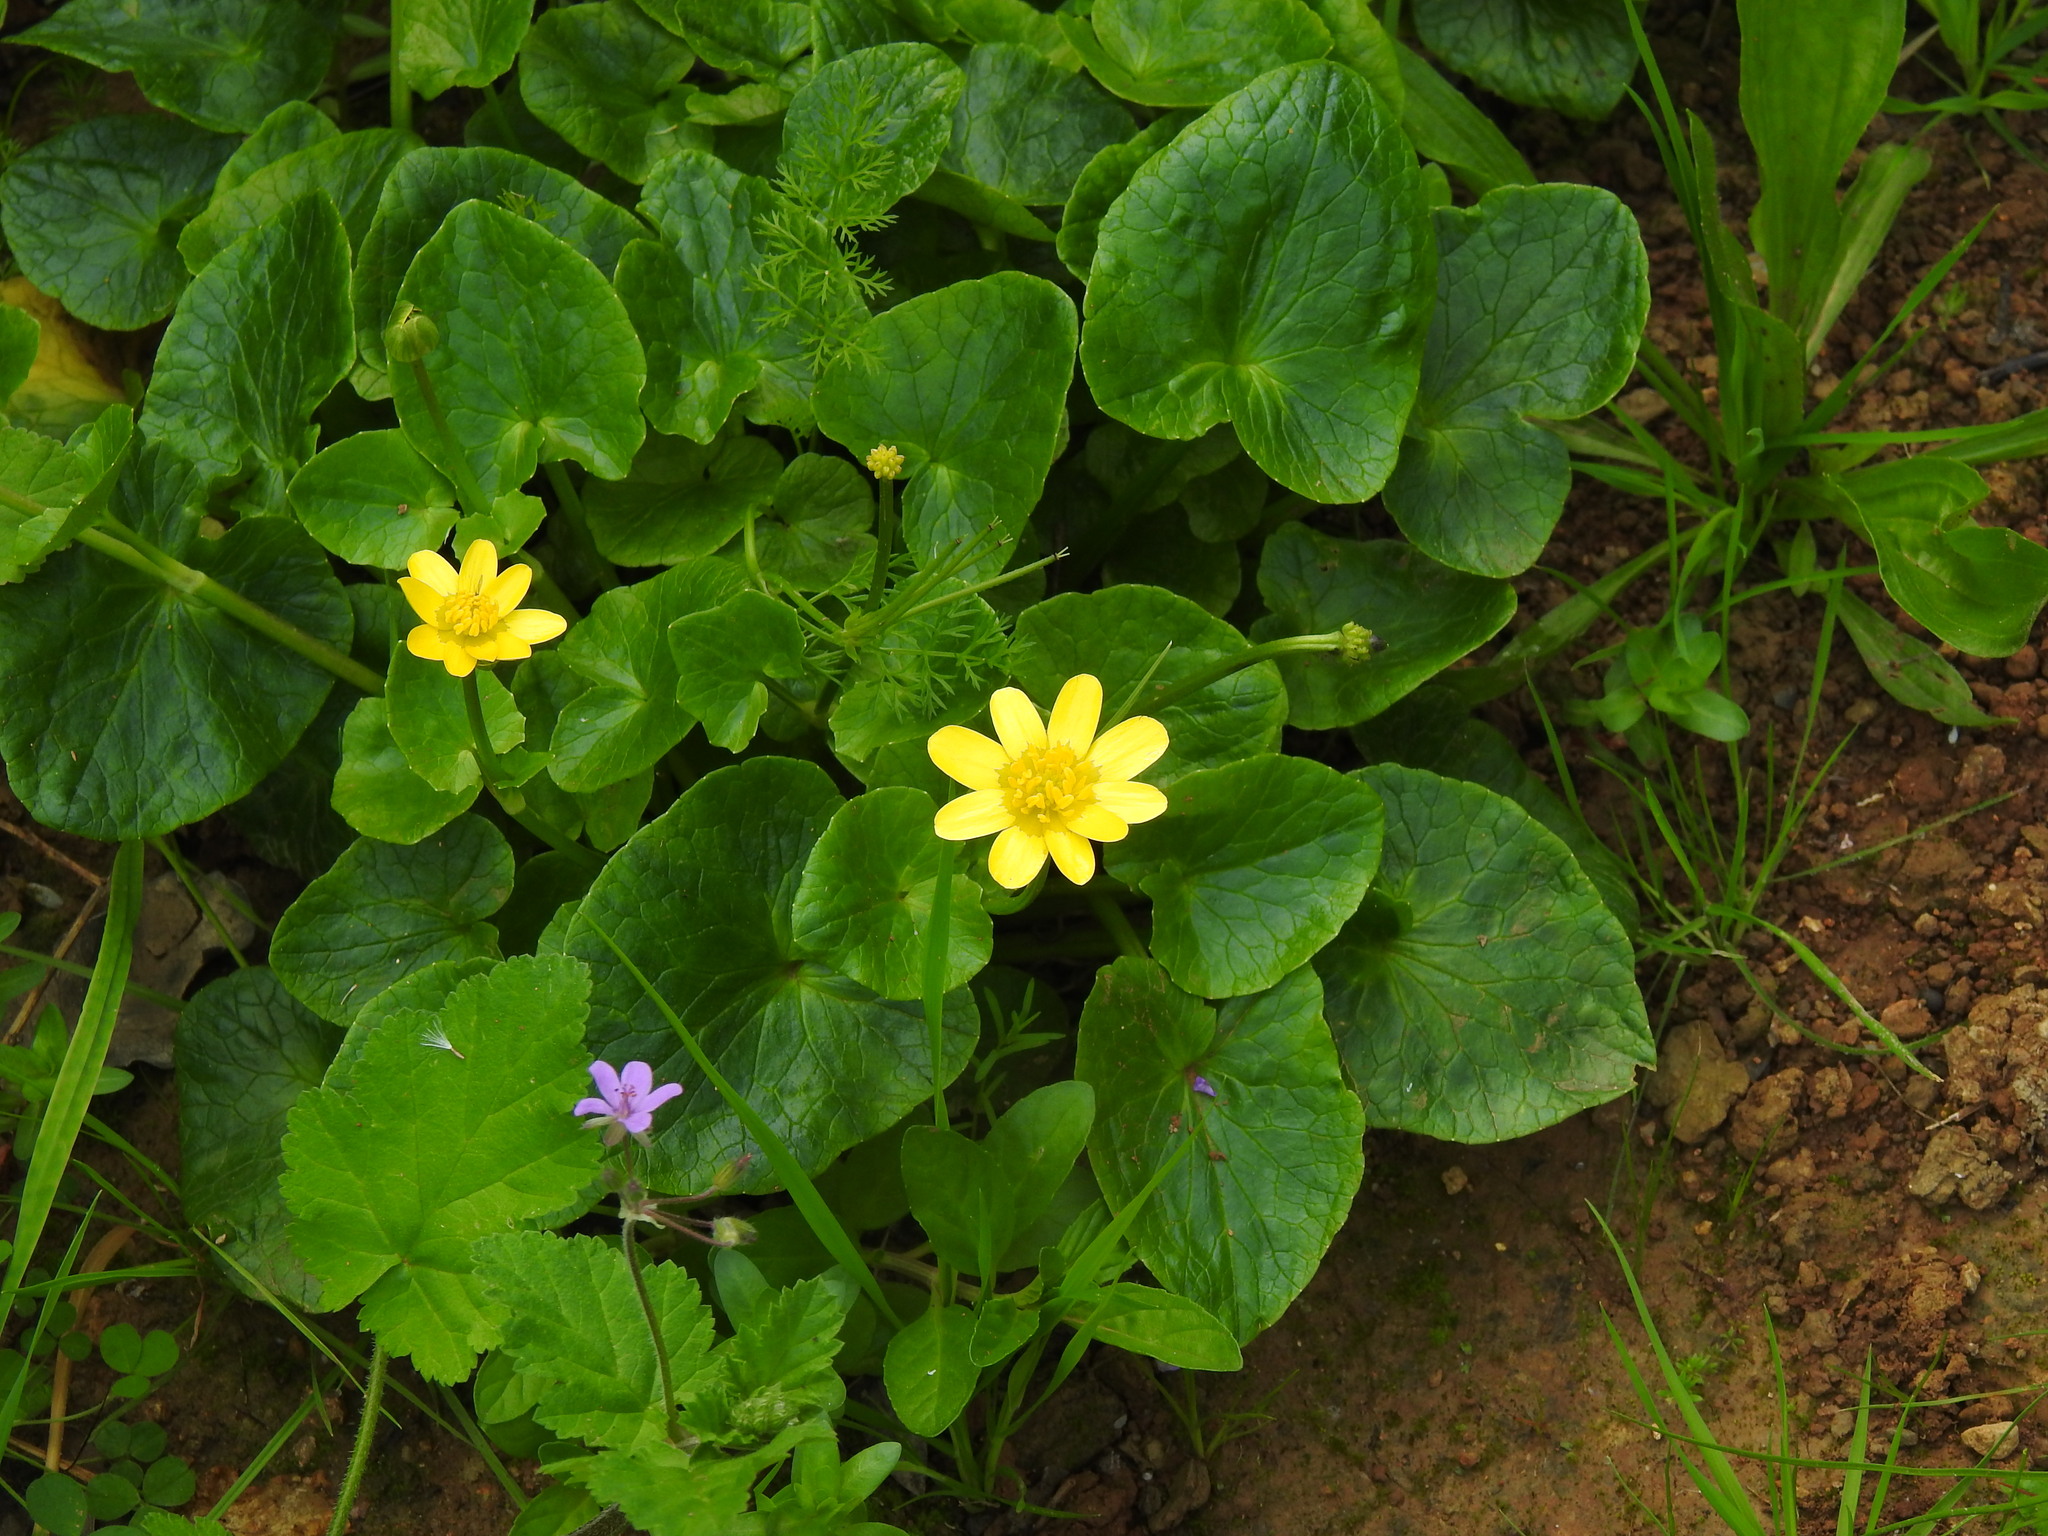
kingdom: Plantae
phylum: Tracheophyta
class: Magnoliopsida
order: Ranunculales
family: Ranunculaceae
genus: Ficaria
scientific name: Ficaria verna
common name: Lesser celandine
